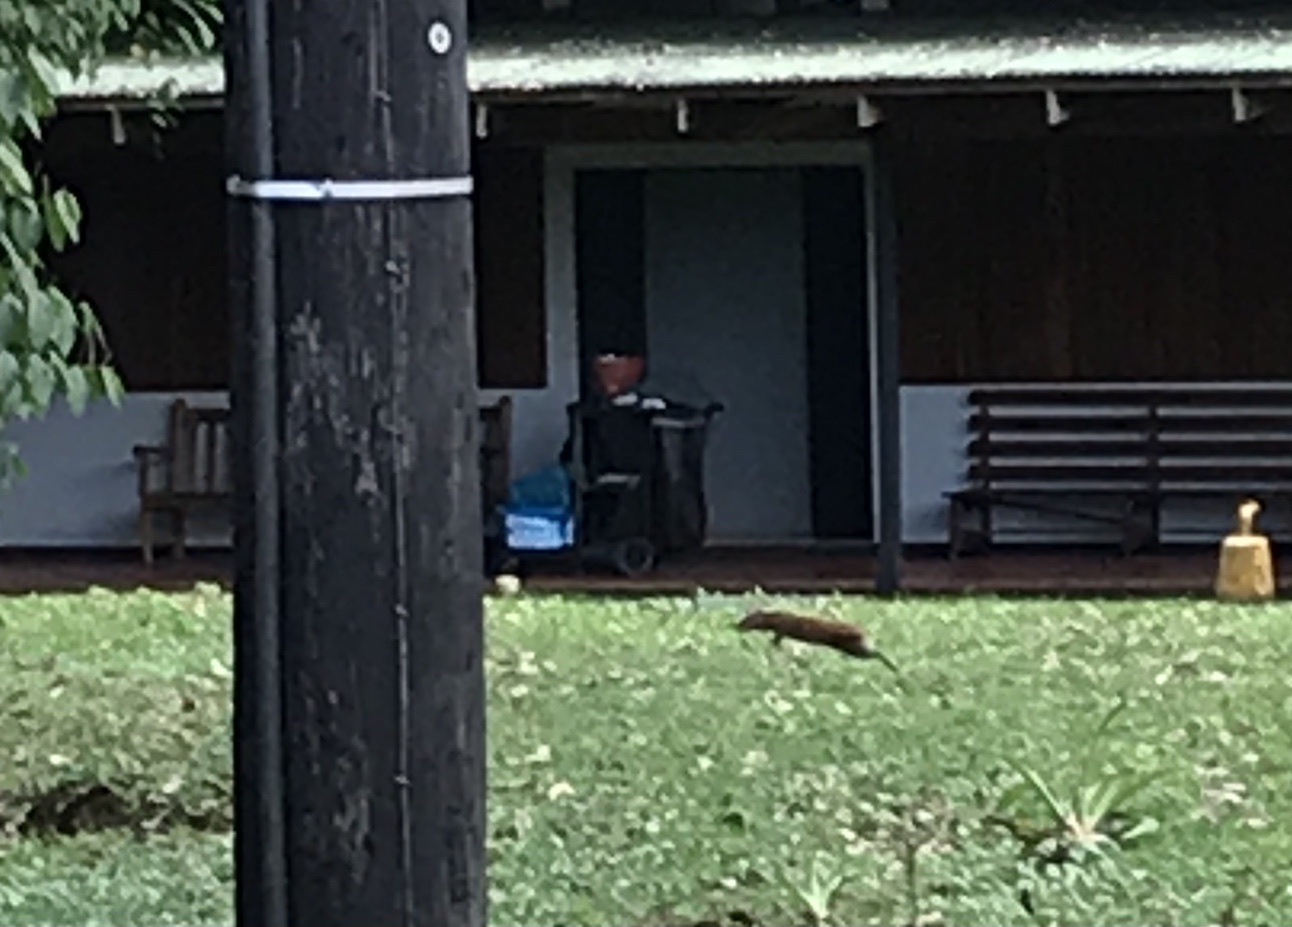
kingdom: Animalia
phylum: Chordata
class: Mammalia
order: Rodentia
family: Dasyproctidae
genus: Dasyprocta
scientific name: Dasyprocta punctata
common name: Central american agouti
